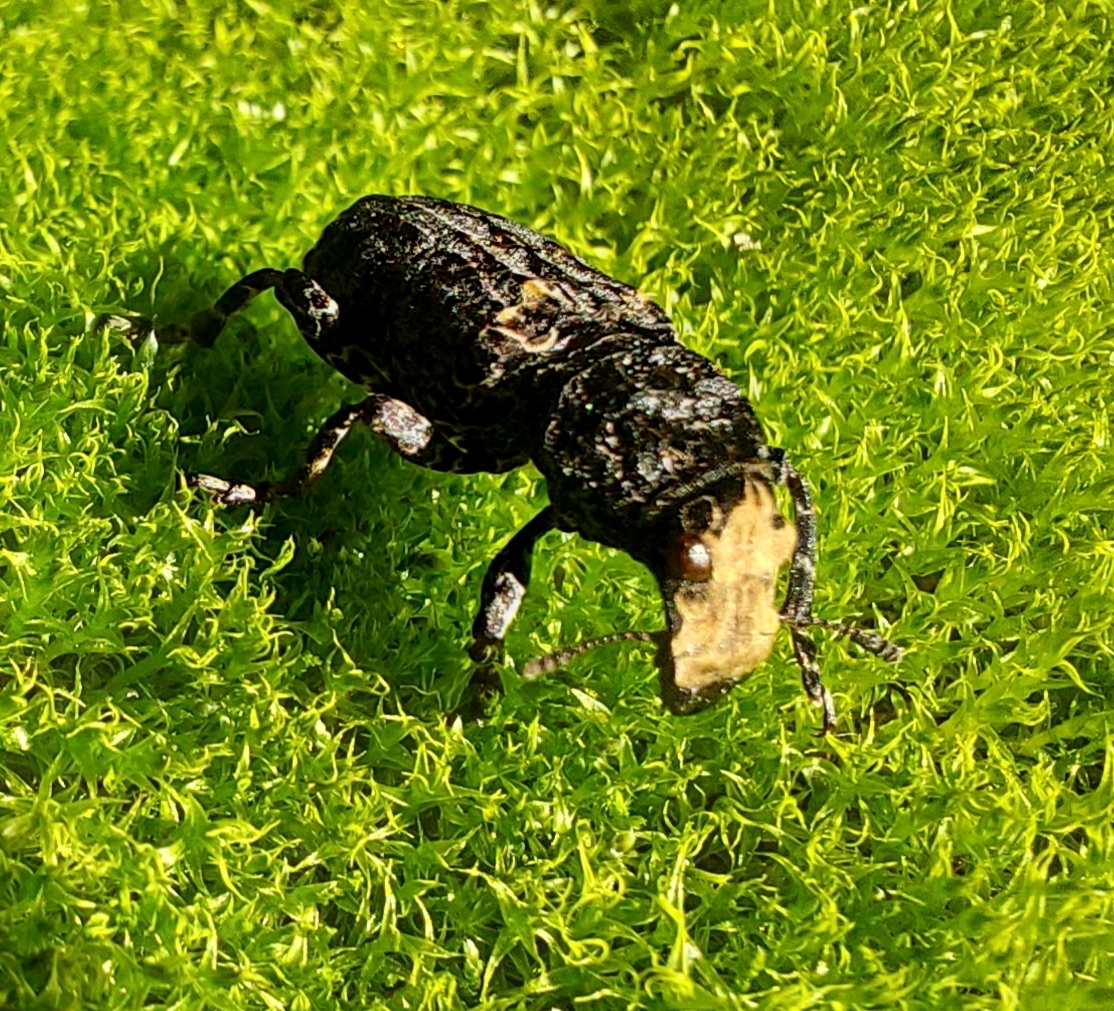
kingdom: Animalia
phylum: Arthropoda
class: Insecta
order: Coleoptera
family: Anthribidae
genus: Platyrhinus
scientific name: Platyrhinus resinosus
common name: Cramp-ball fungus weevil
